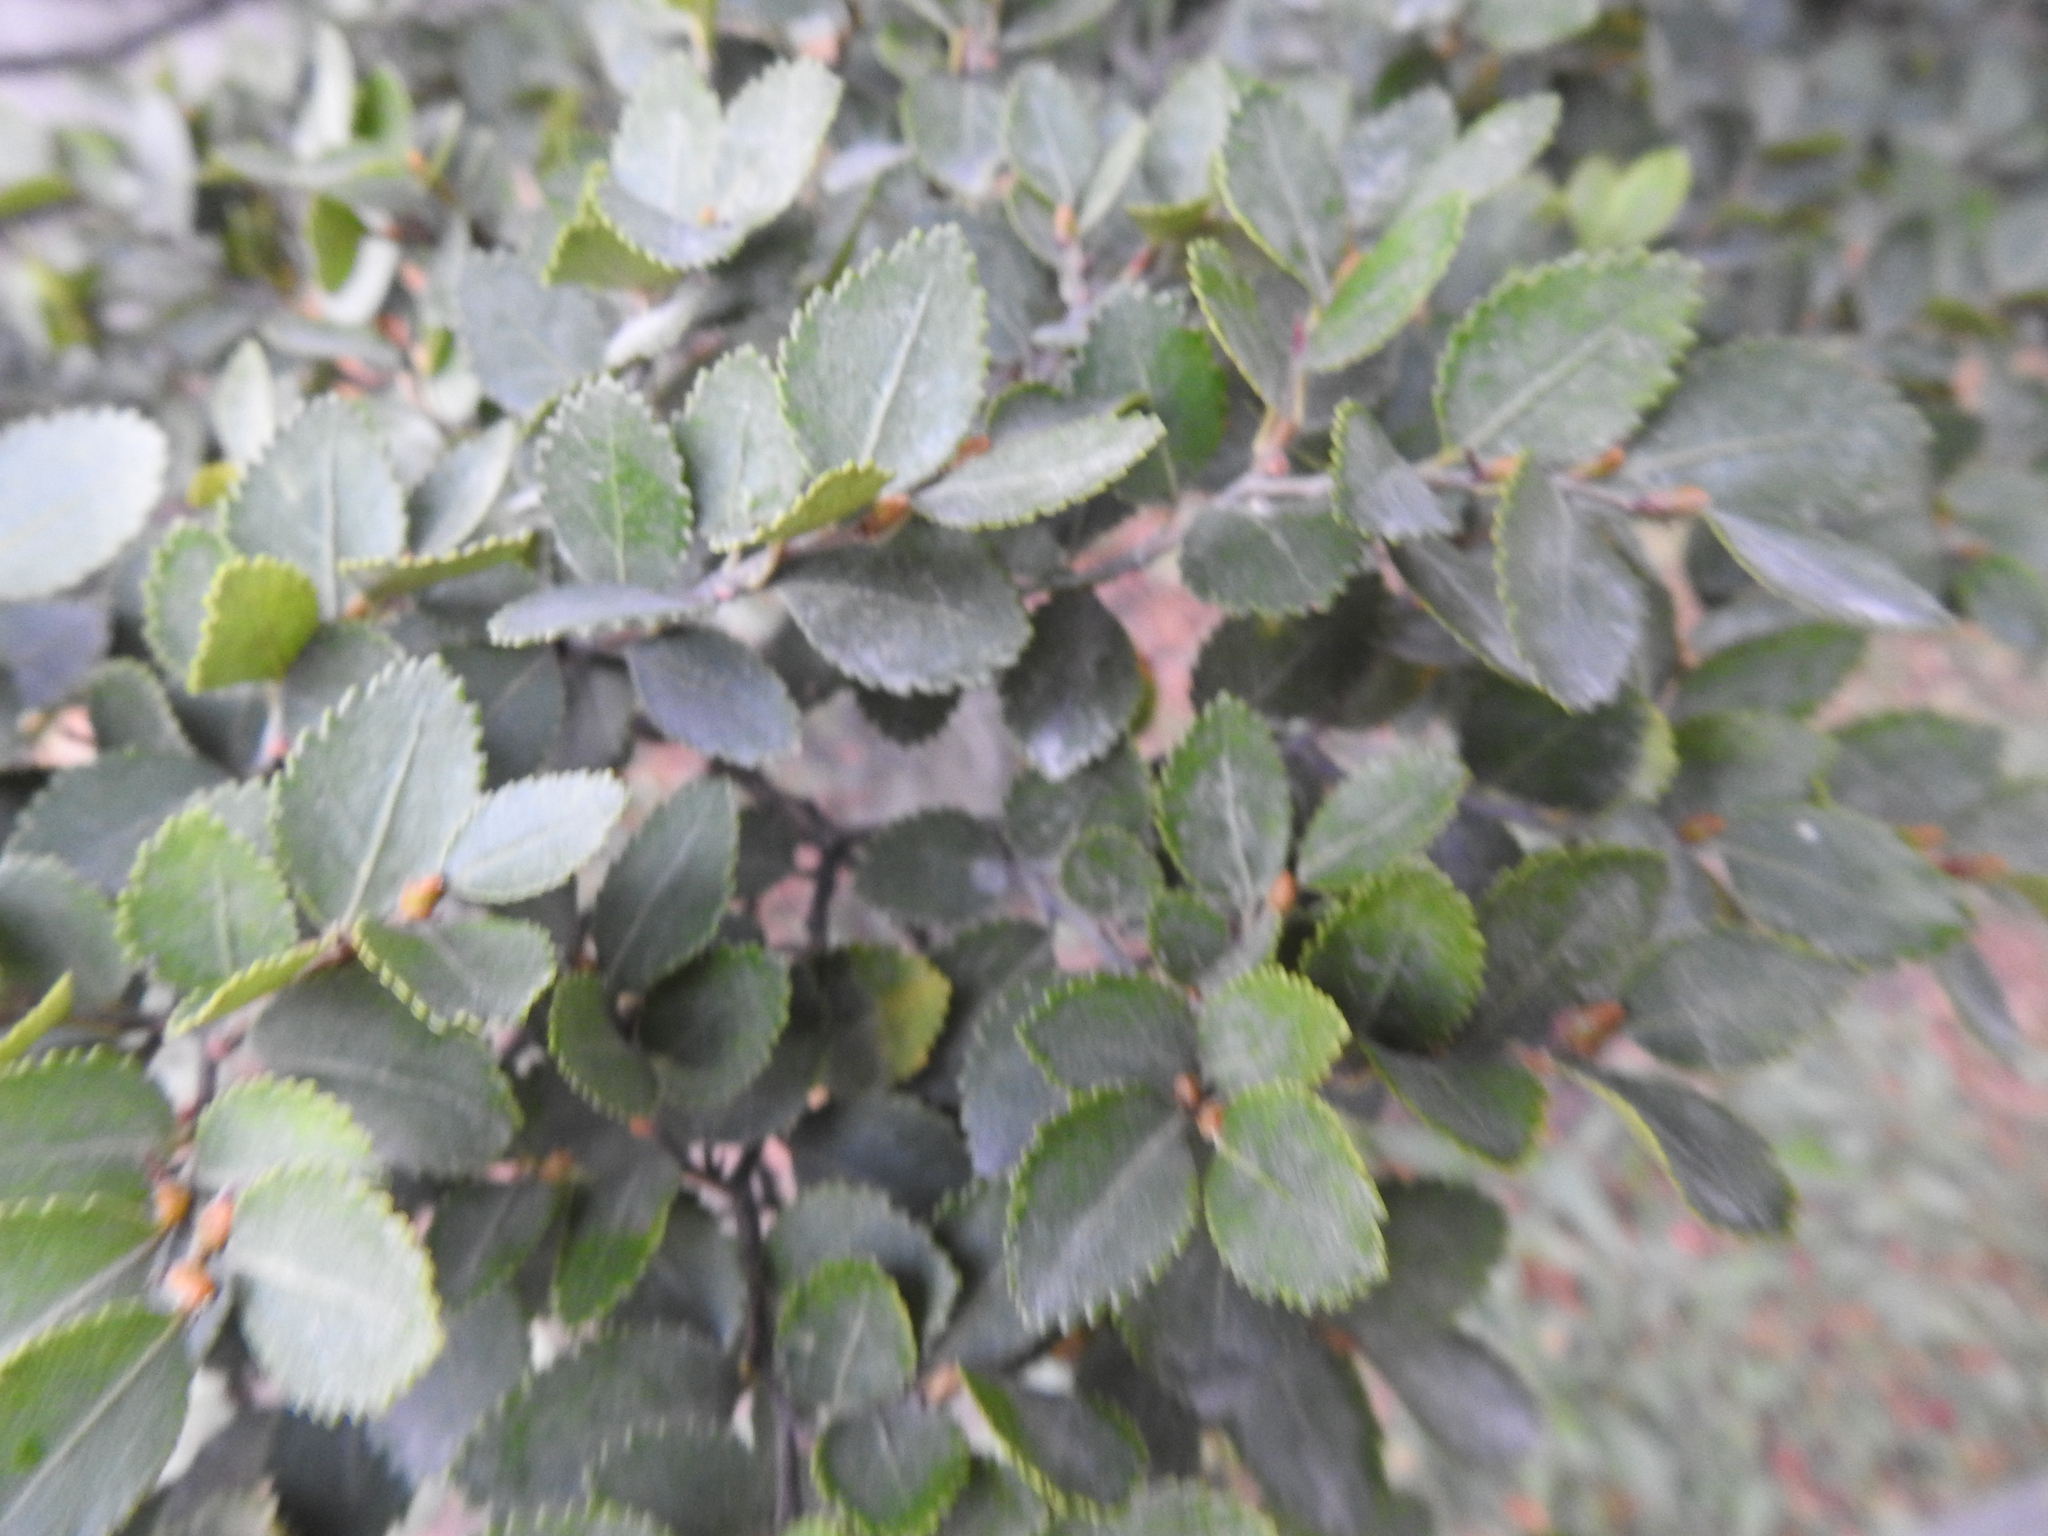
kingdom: Plantae
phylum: Tracheophyta
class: Magnoliopsida
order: Fagales
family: Nothofagaceae
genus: Nothofagus
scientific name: Nothofagus betuloides
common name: Magellan's beech
